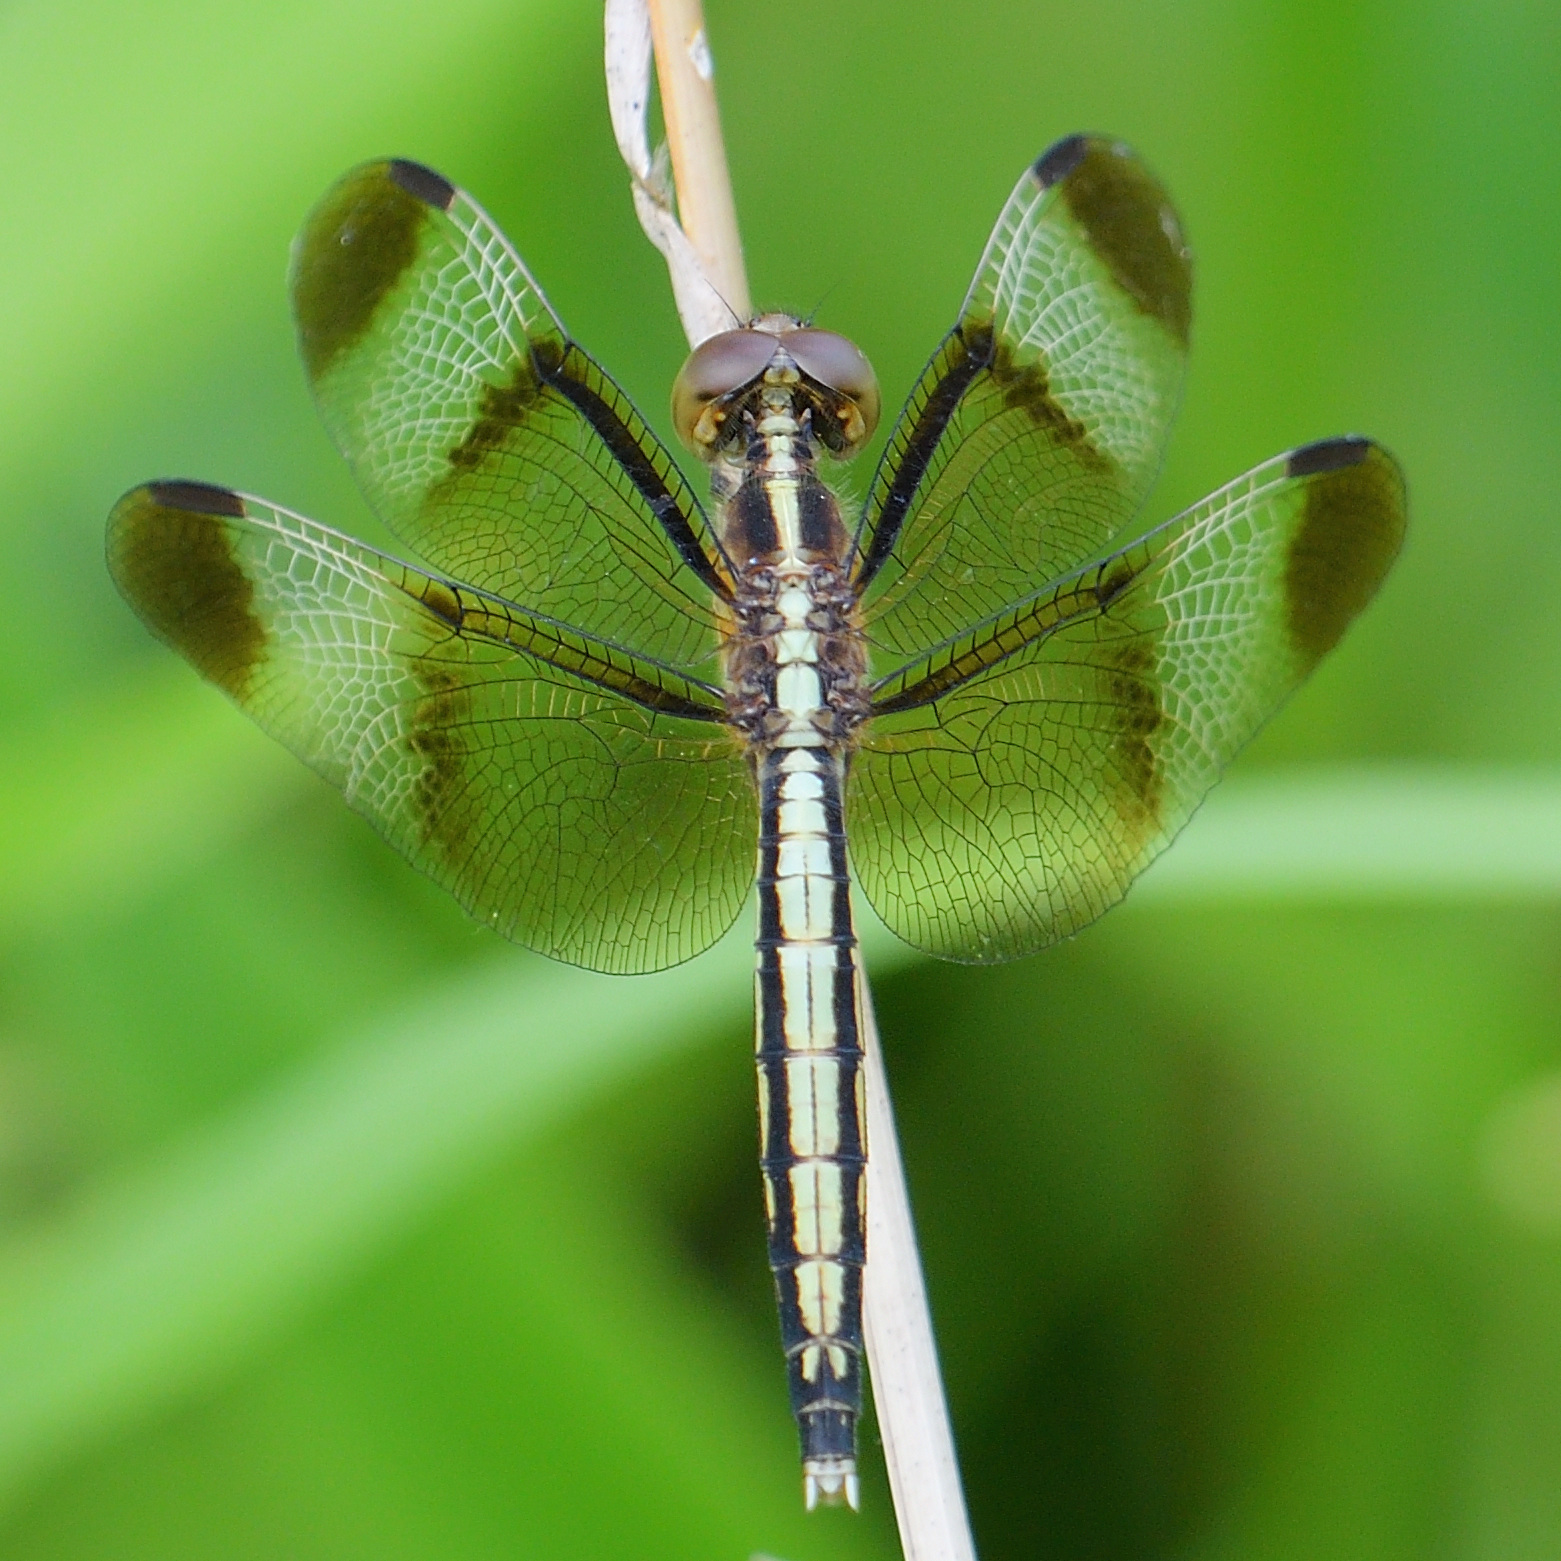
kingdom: Animalia
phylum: Arthropoda
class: Insecta
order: Odonata
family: Libellulidae
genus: Neurothemis
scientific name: Neurothemis tullia
